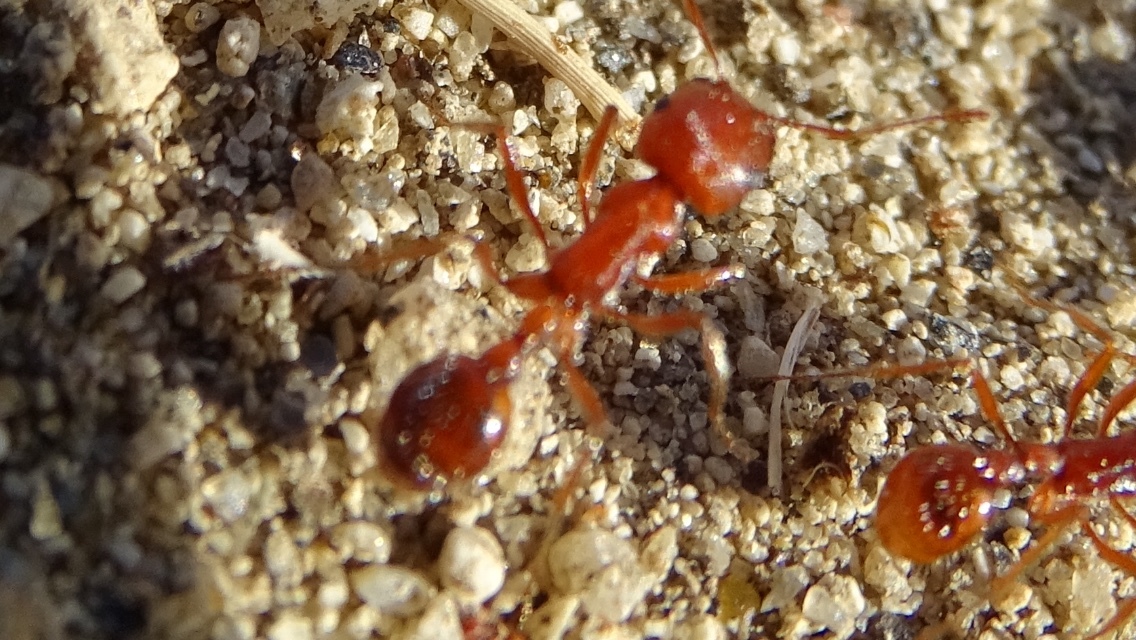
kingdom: Animalia
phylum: Arthropoda
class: Insecta
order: Hymenoptera
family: Formicidae
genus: Pogonomyrmex
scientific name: Pogonomyrmex californicus
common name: California harvester ant
